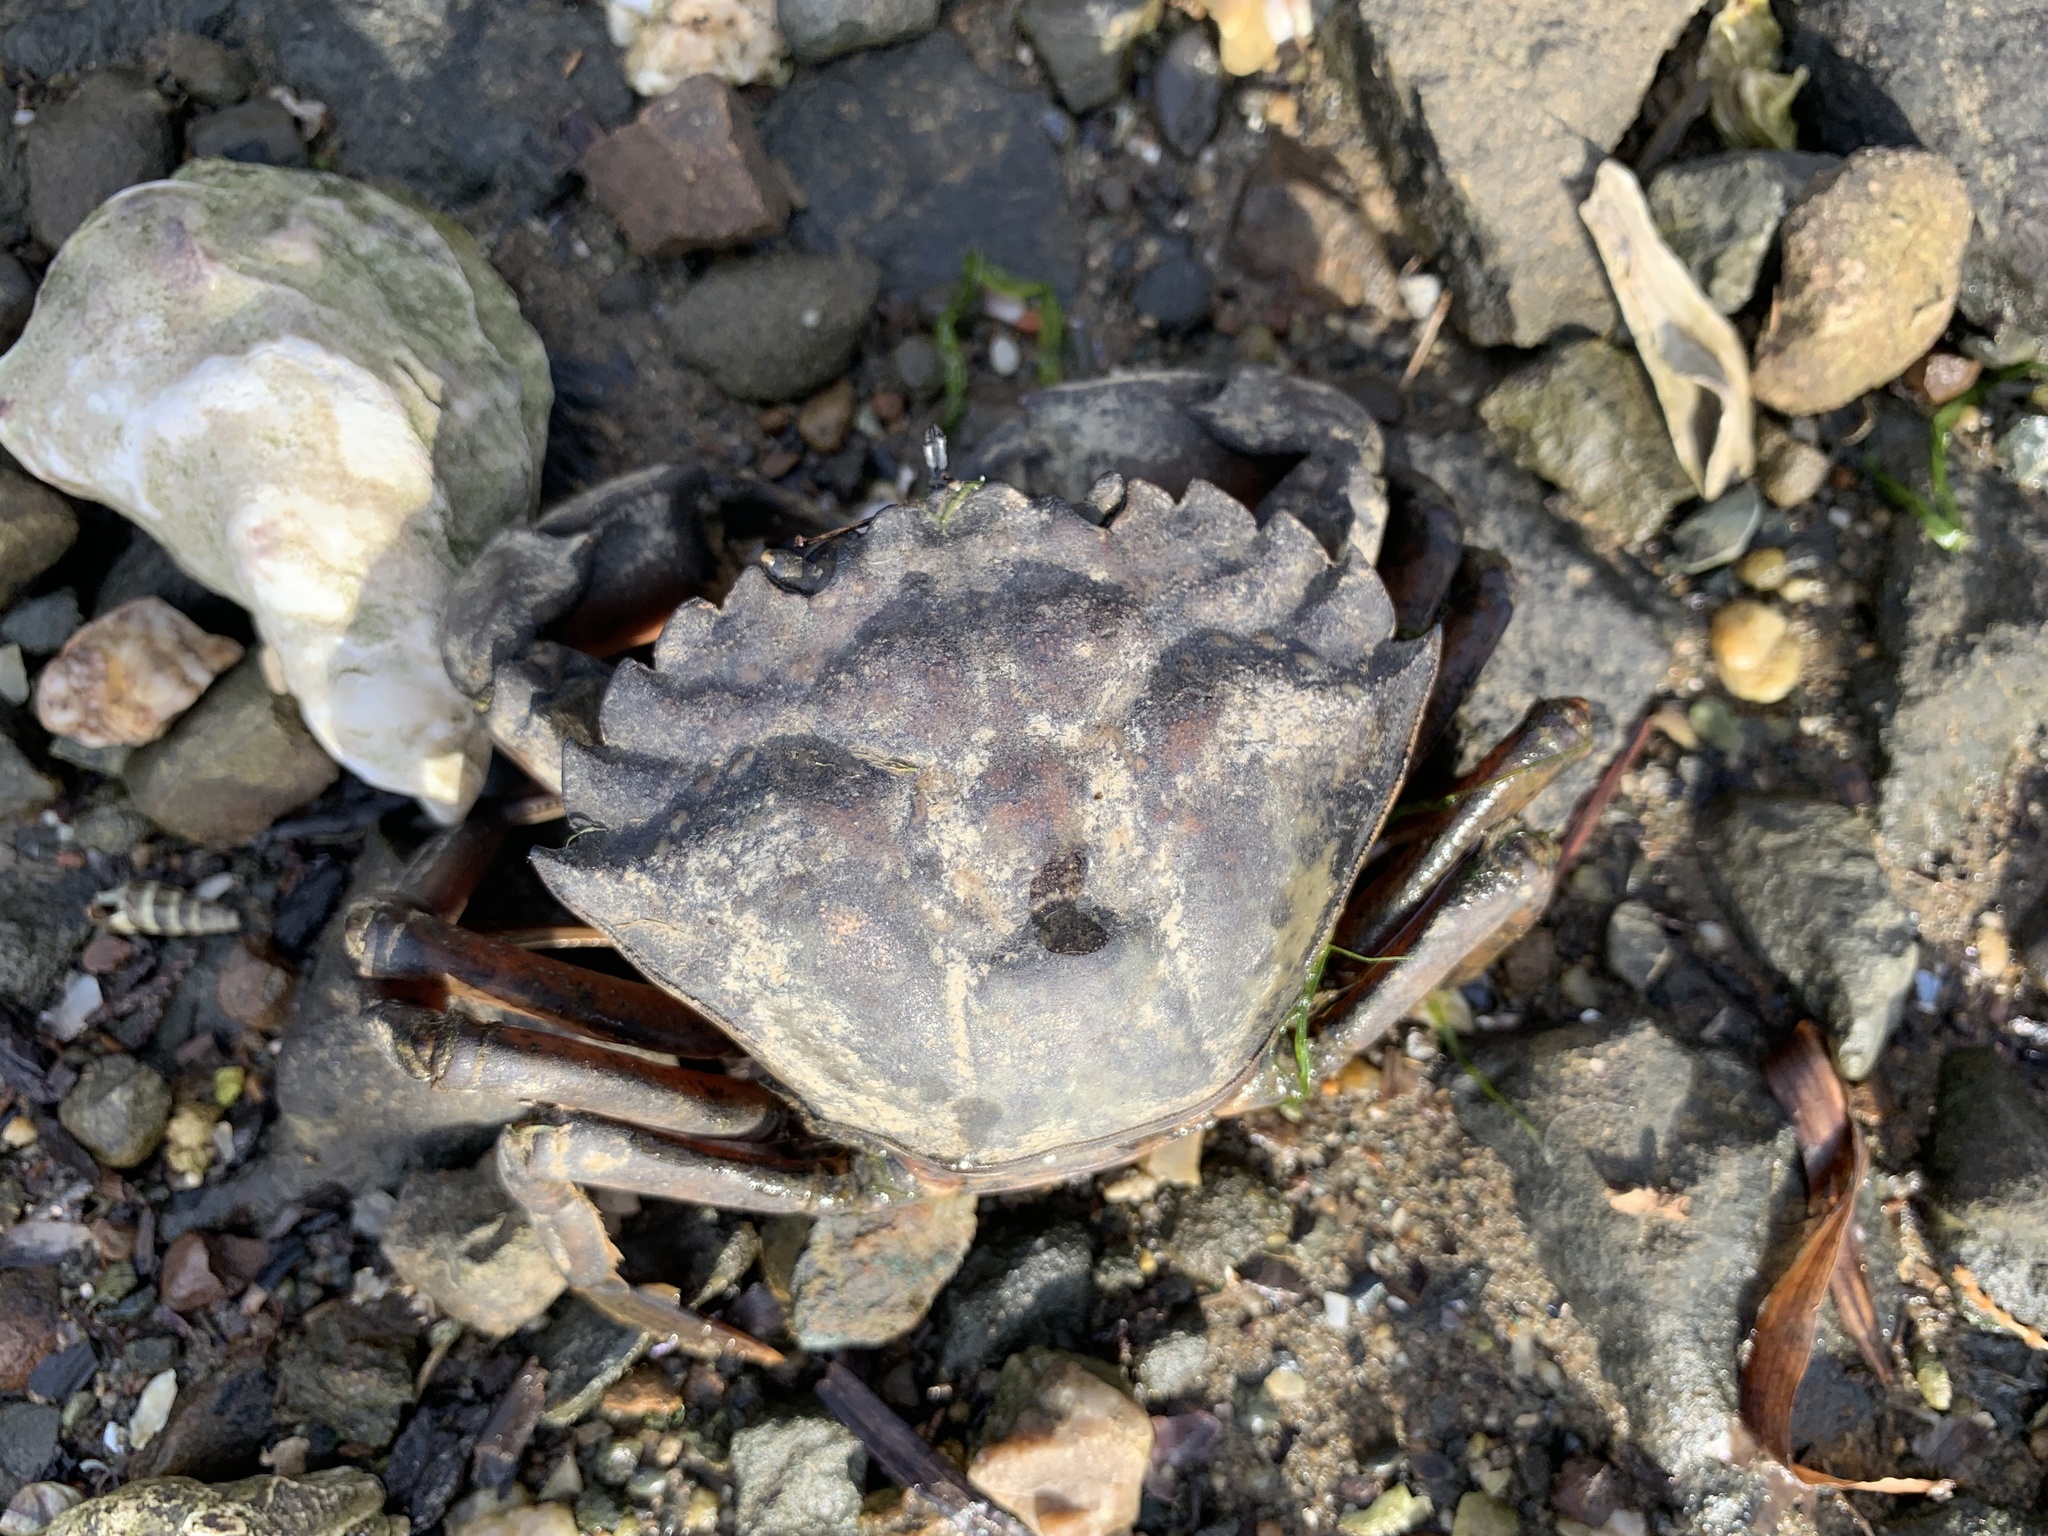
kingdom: Animalia
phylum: Arthropoda
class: Malacostraca
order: Decapoda
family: Carcinidae
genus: Carcinus
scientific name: Carcinus maenas
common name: European green crab
